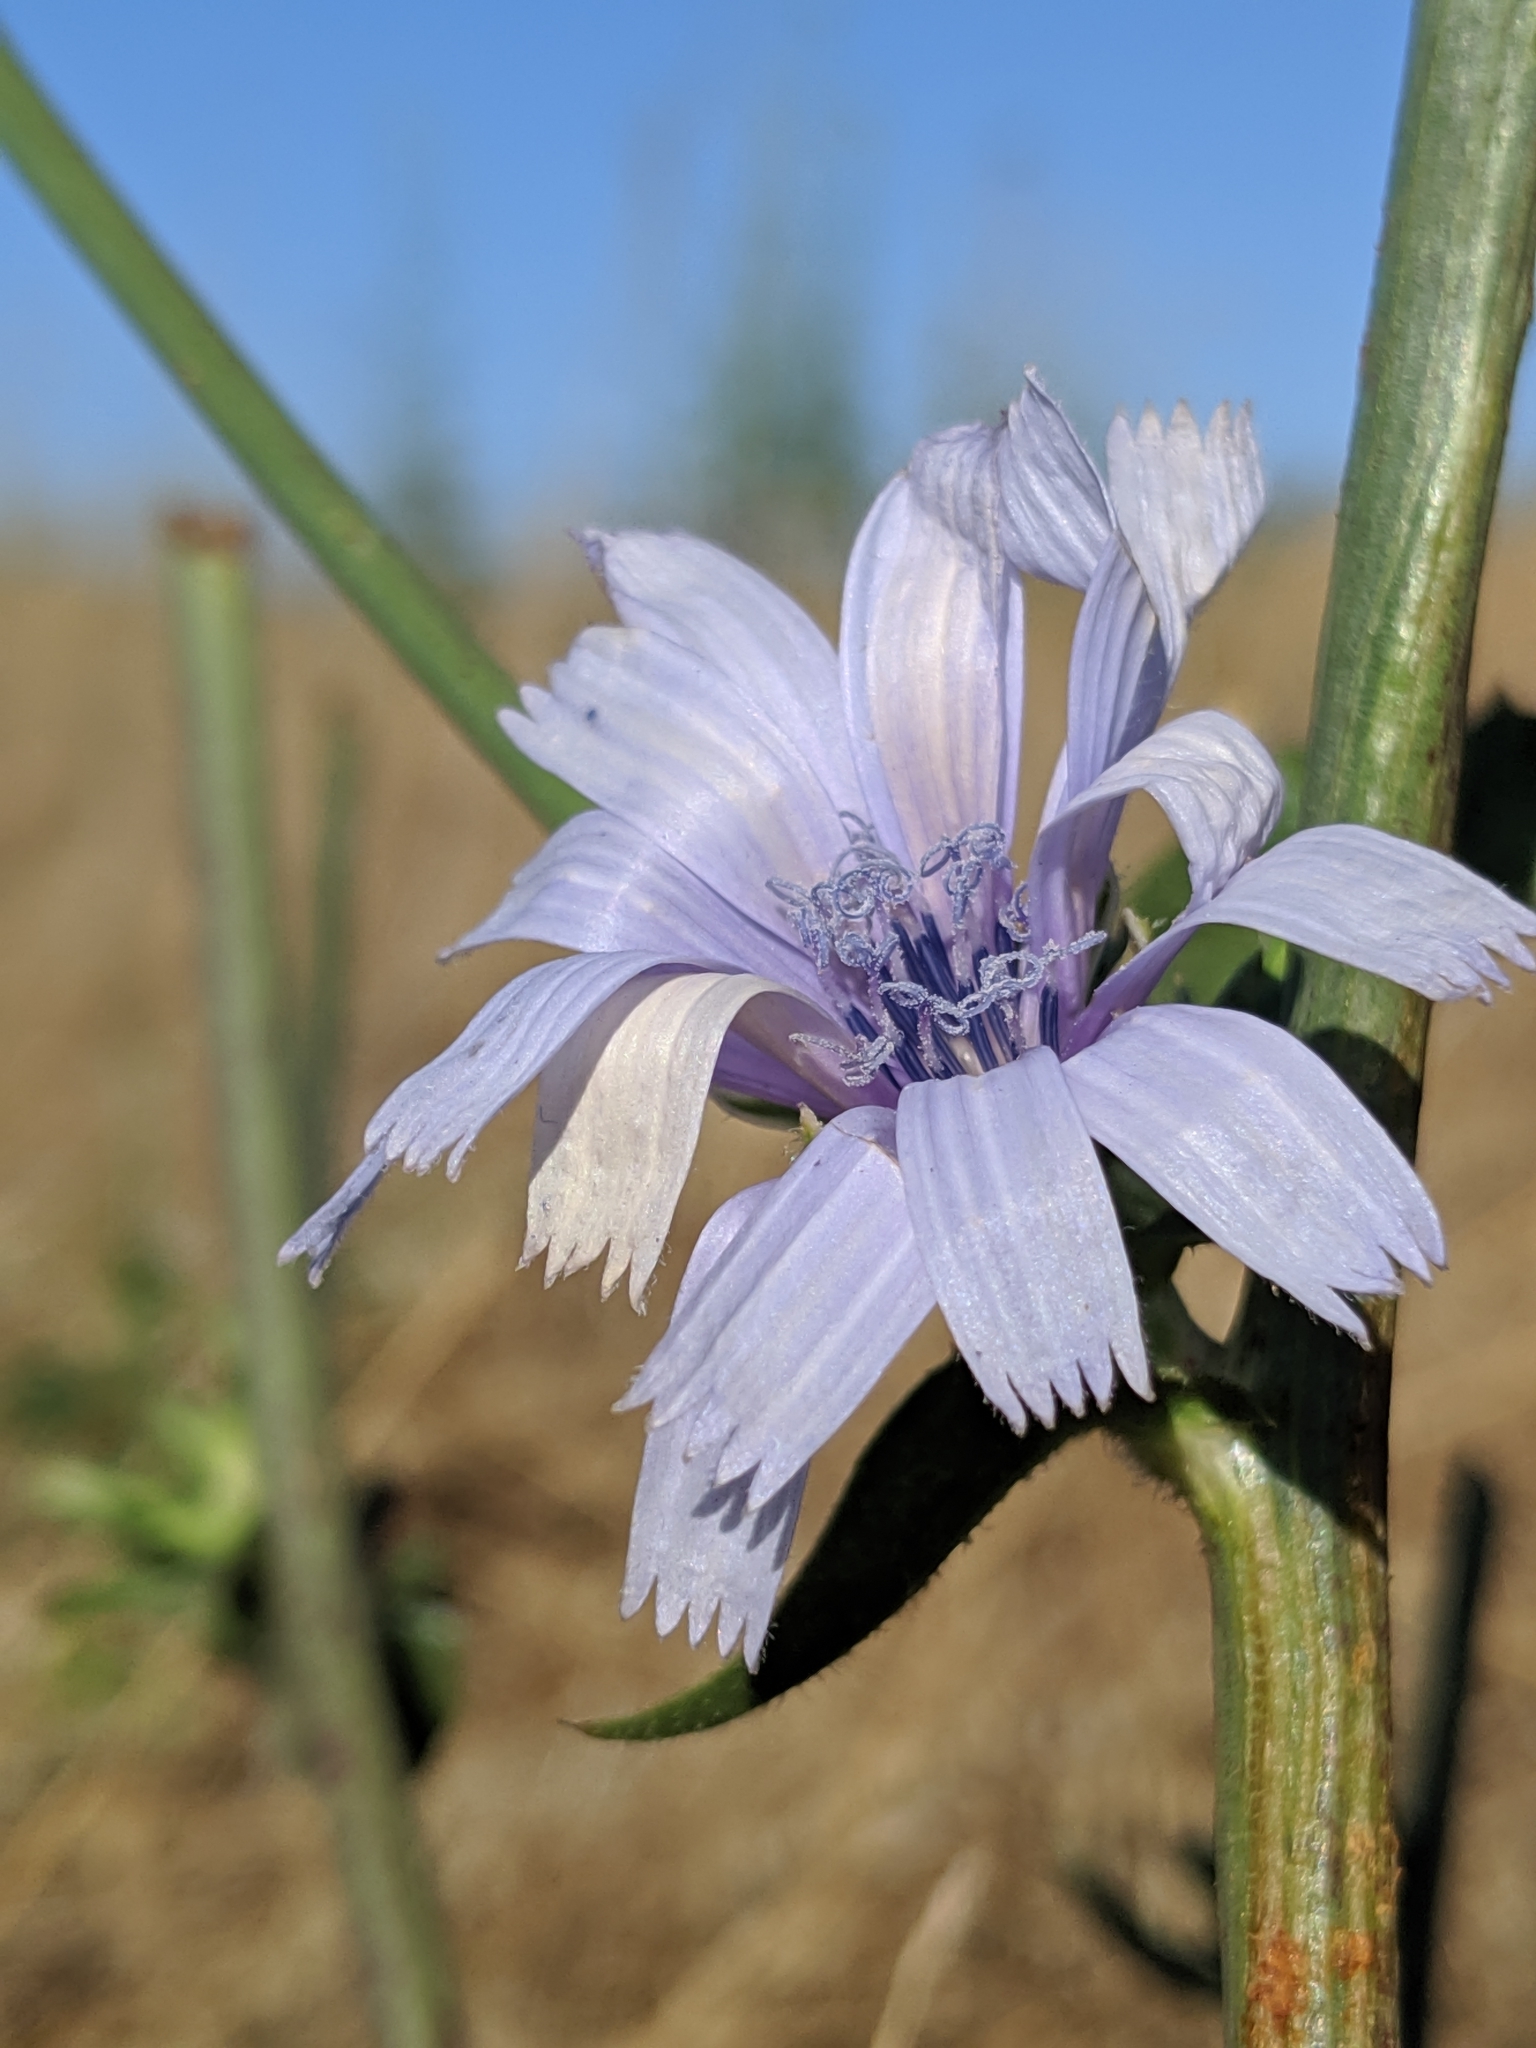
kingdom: Plantae
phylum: Tracheophyta
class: Magnoliopsida
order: Asterales
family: Asteraceae
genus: Cichorium
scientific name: Cichorium intybus
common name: Chicory
